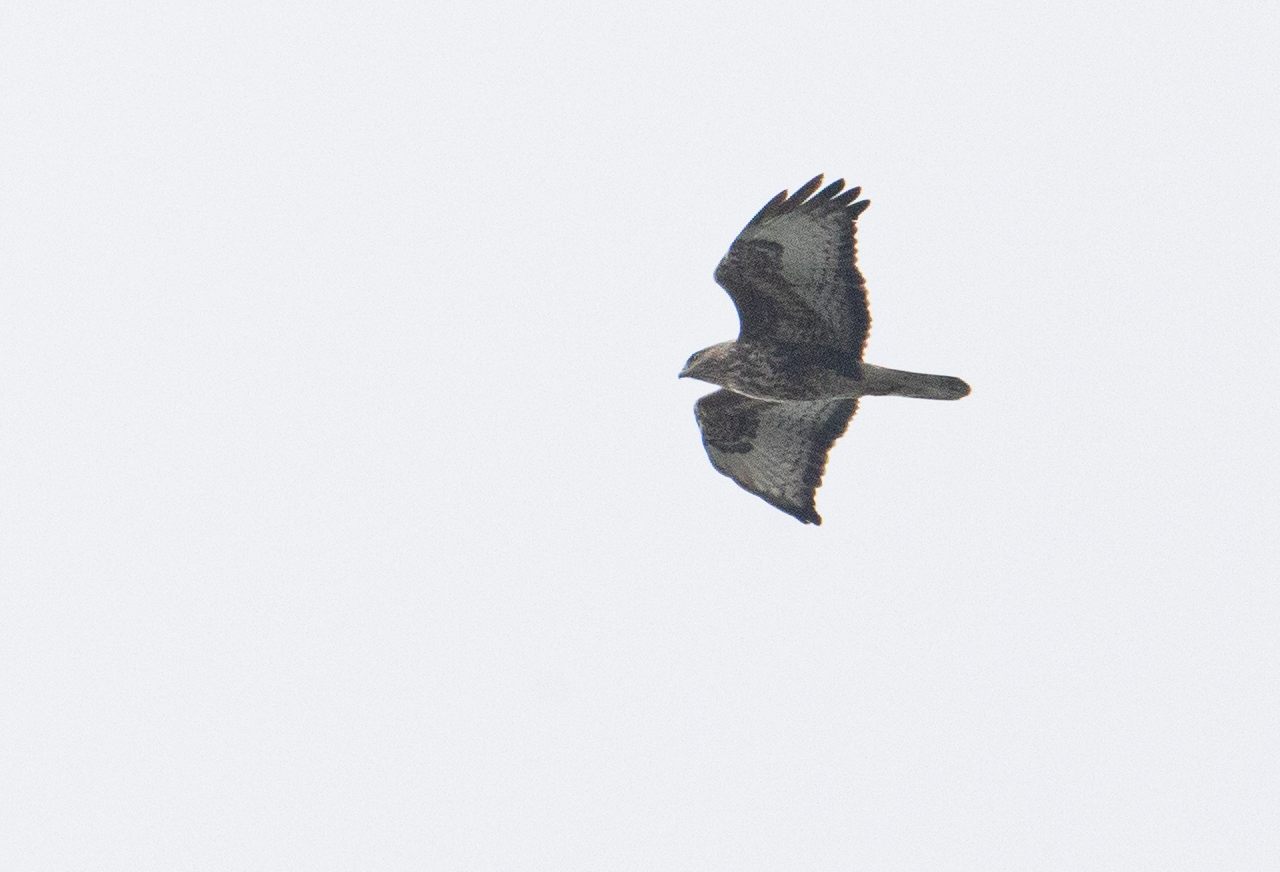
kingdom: Animalia
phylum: Chordata
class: Aves
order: Accipitriformes
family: Accipitridae
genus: Buteo
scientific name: Buteo buteo
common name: Common buzzard
